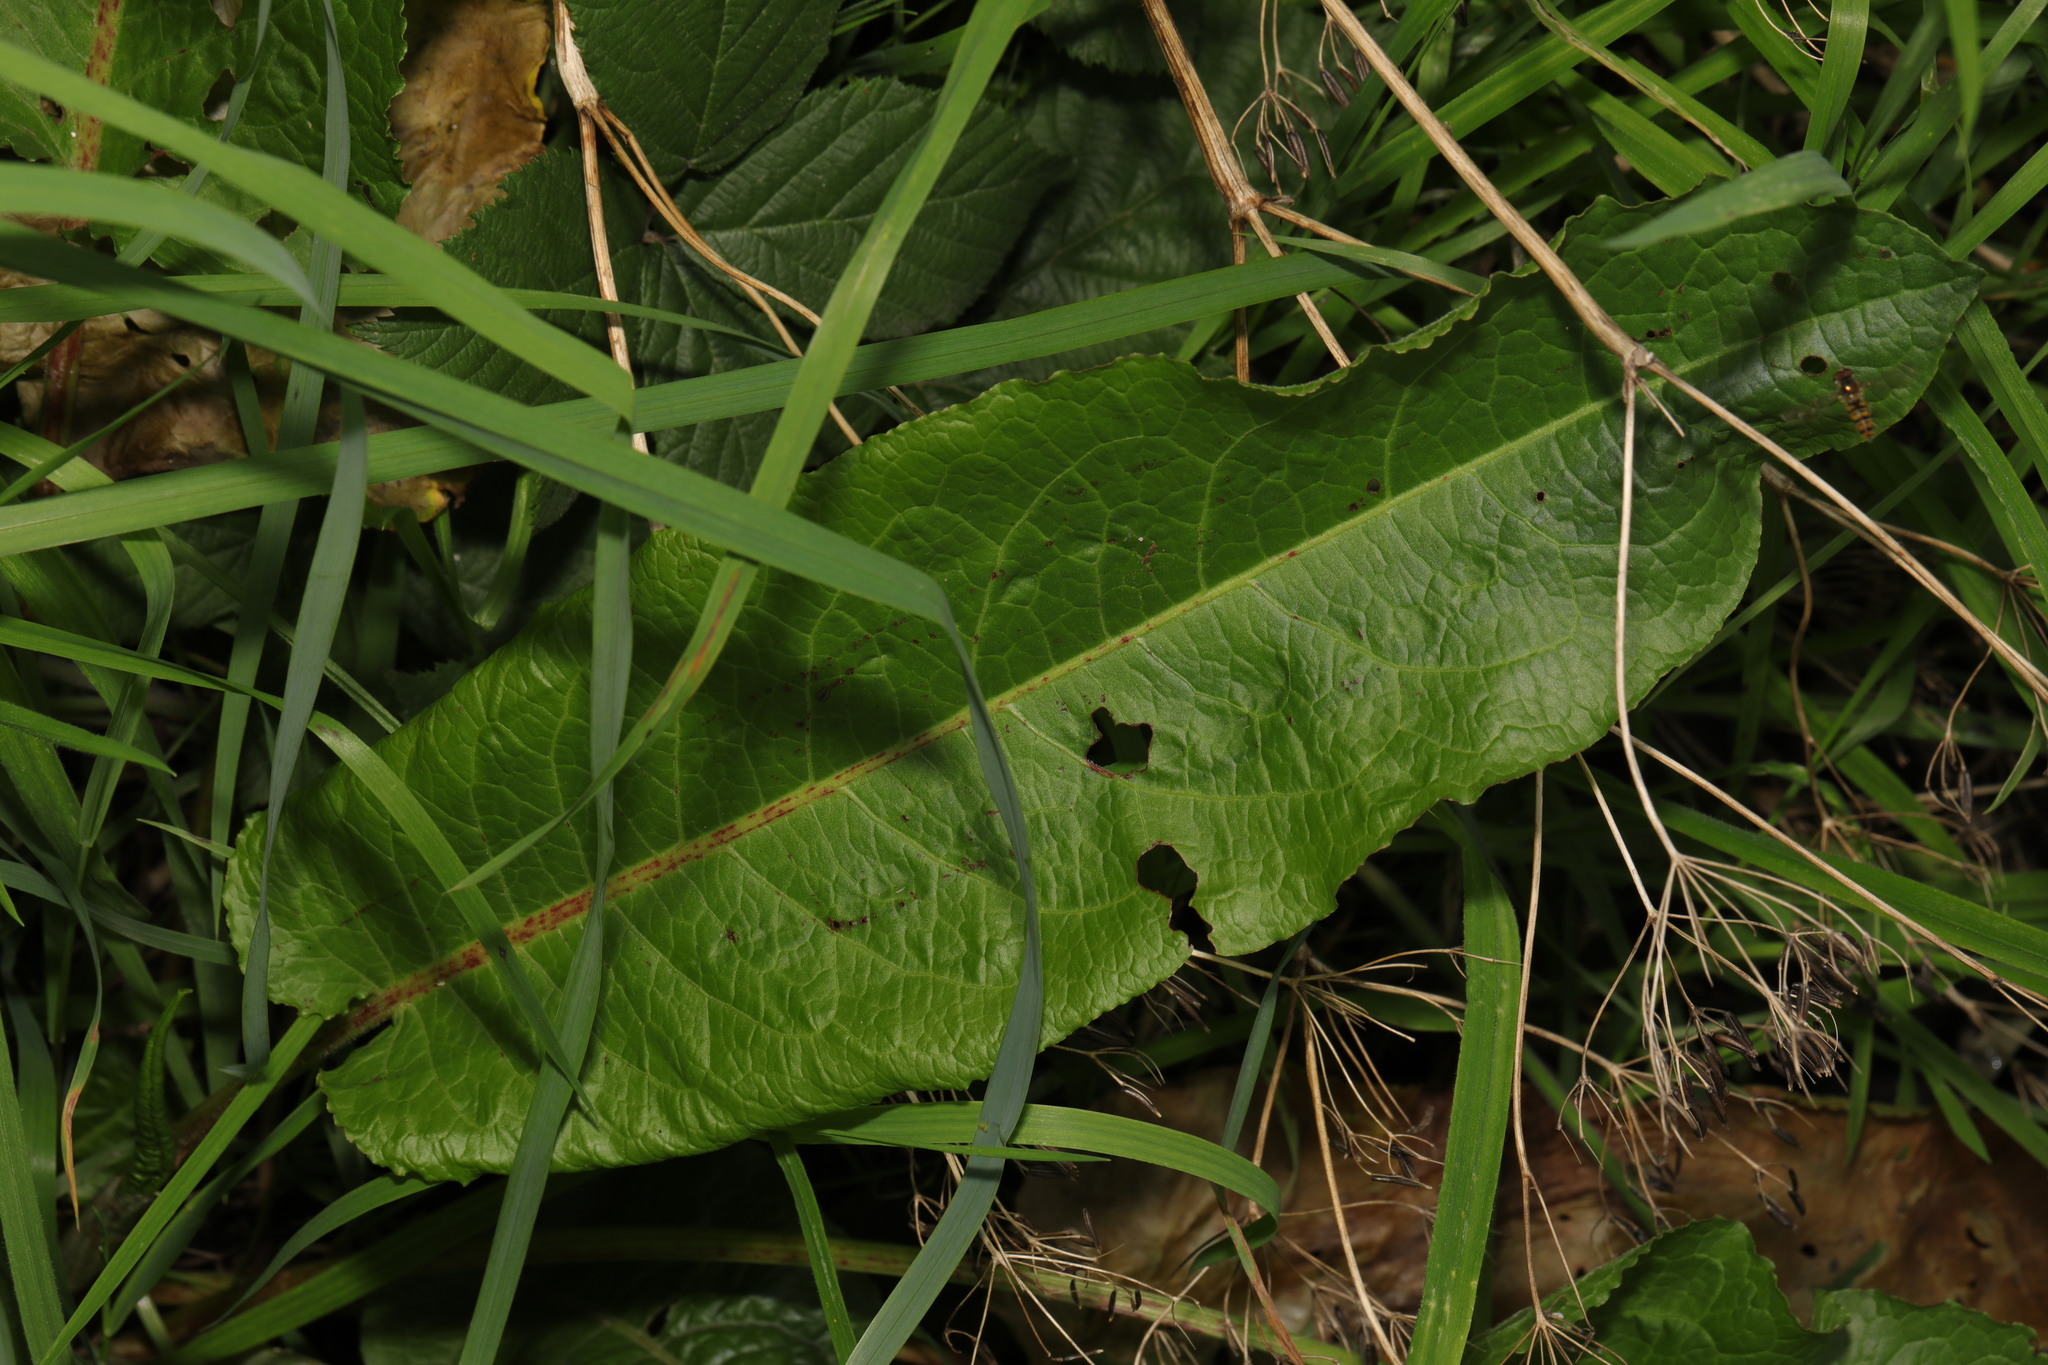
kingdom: Plantae
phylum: Tracheophyta
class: Magnoliopsida
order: Caryophyllales
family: Polygonaceae
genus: Rumex
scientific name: Rumex obtusifolius
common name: Bitter dock
